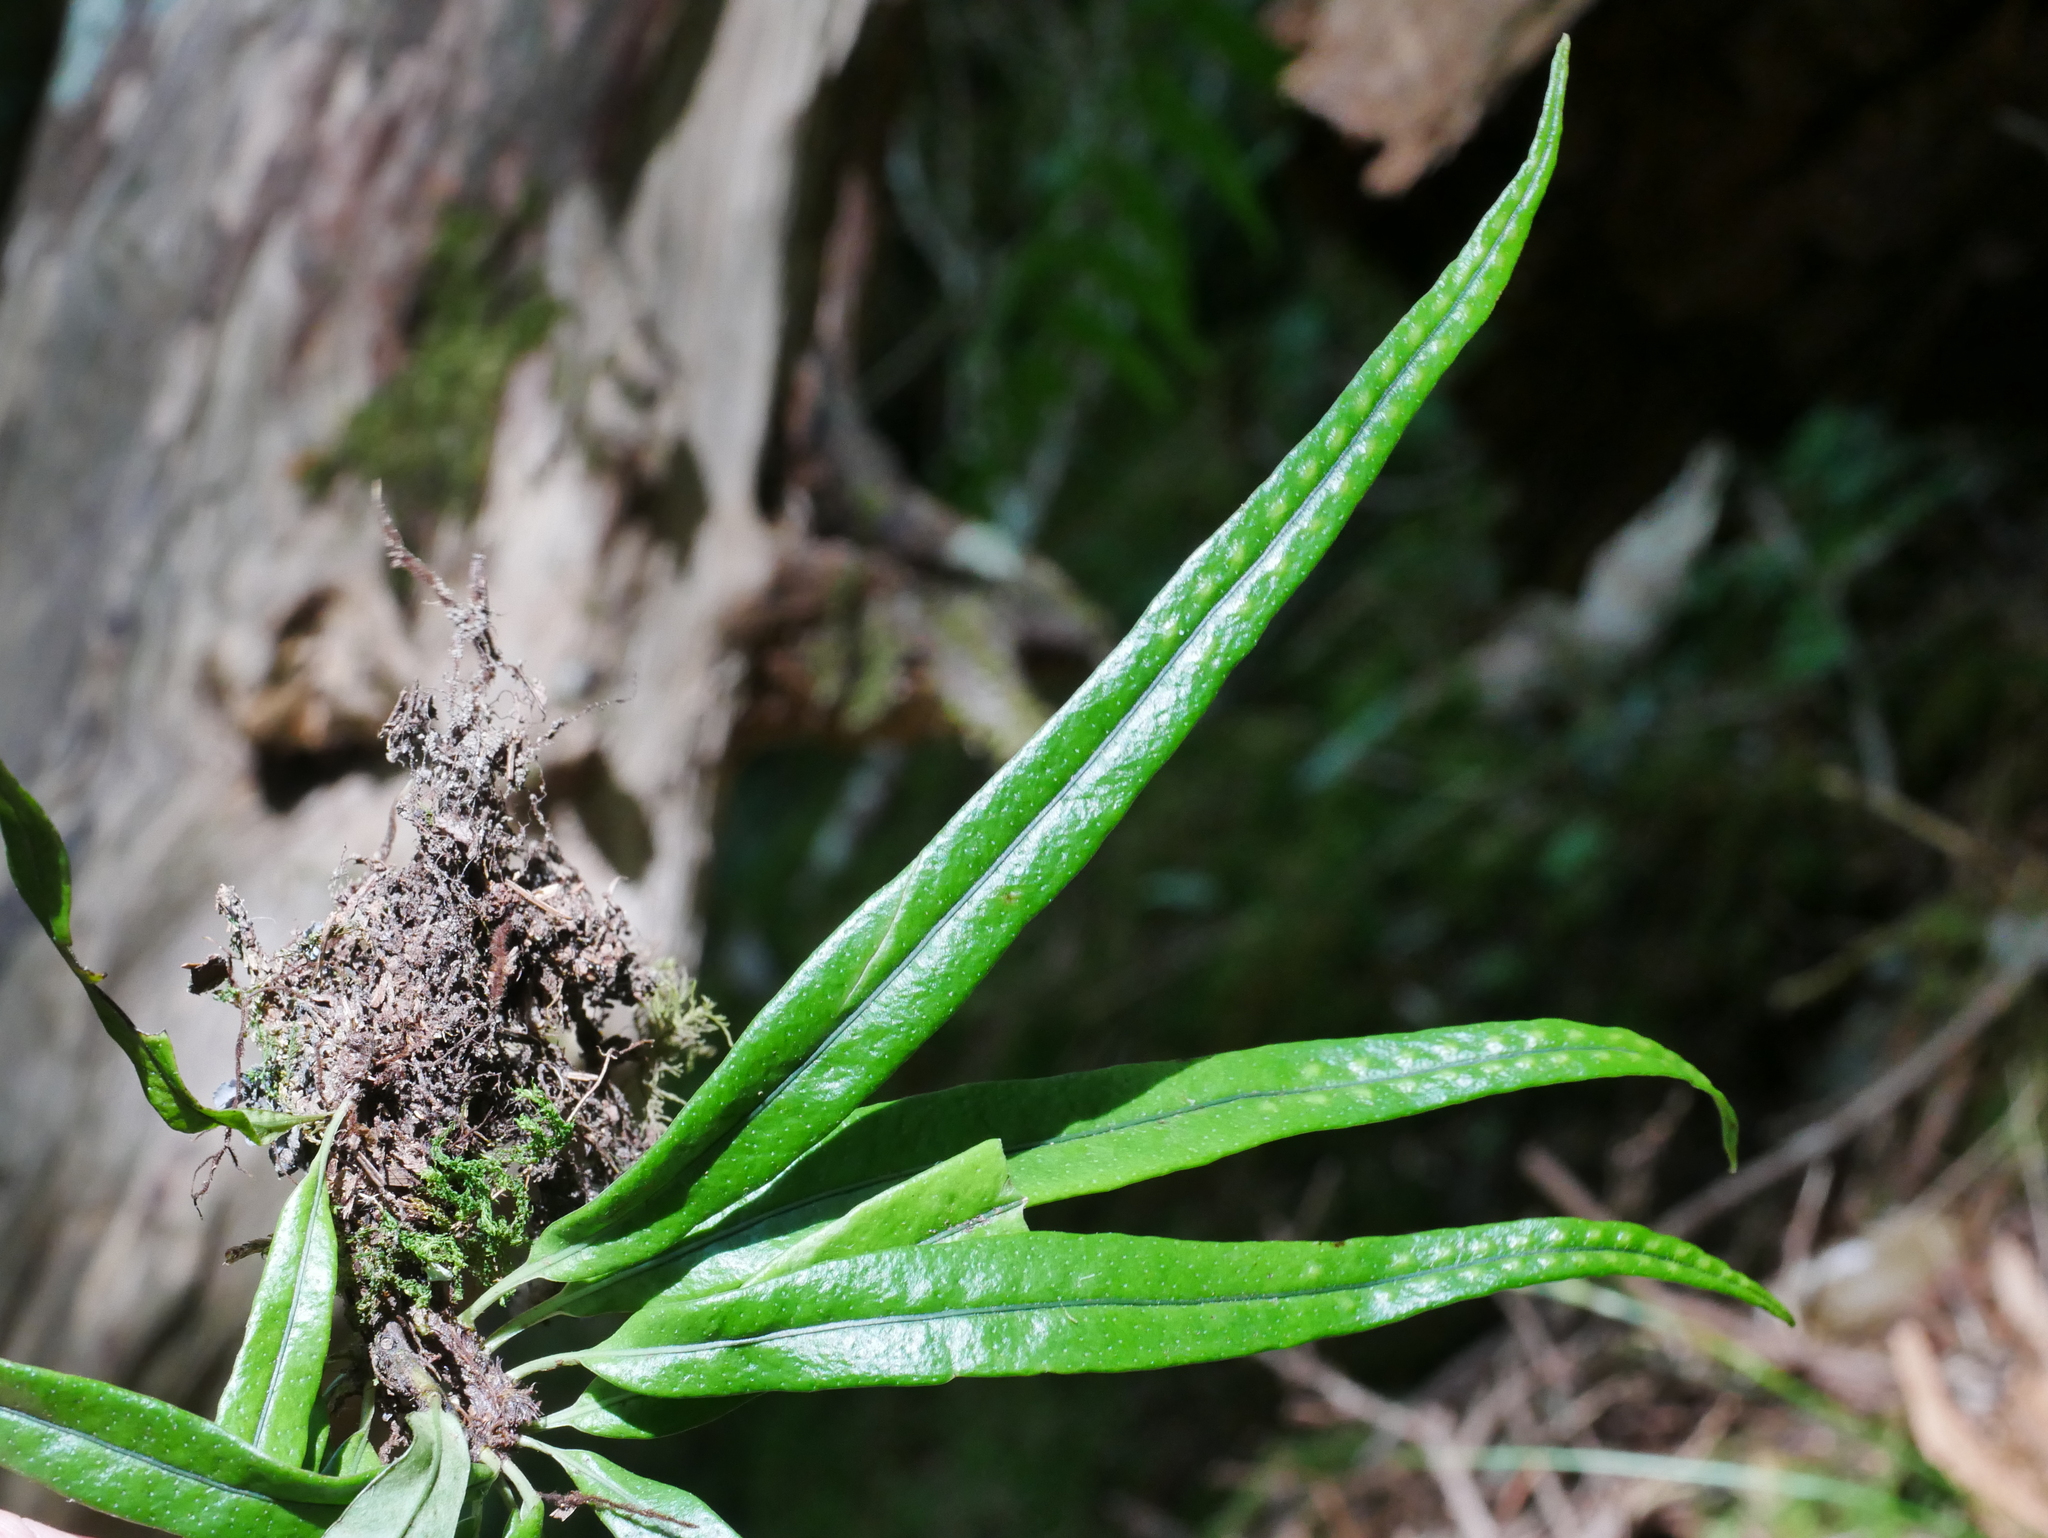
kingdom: Plantae
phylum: Tracheophyta
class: Polypodiopsida
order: Polypodiales
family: Polypodiaceae
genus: Lepisorus
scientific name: Lepisorus suboligolepidus
